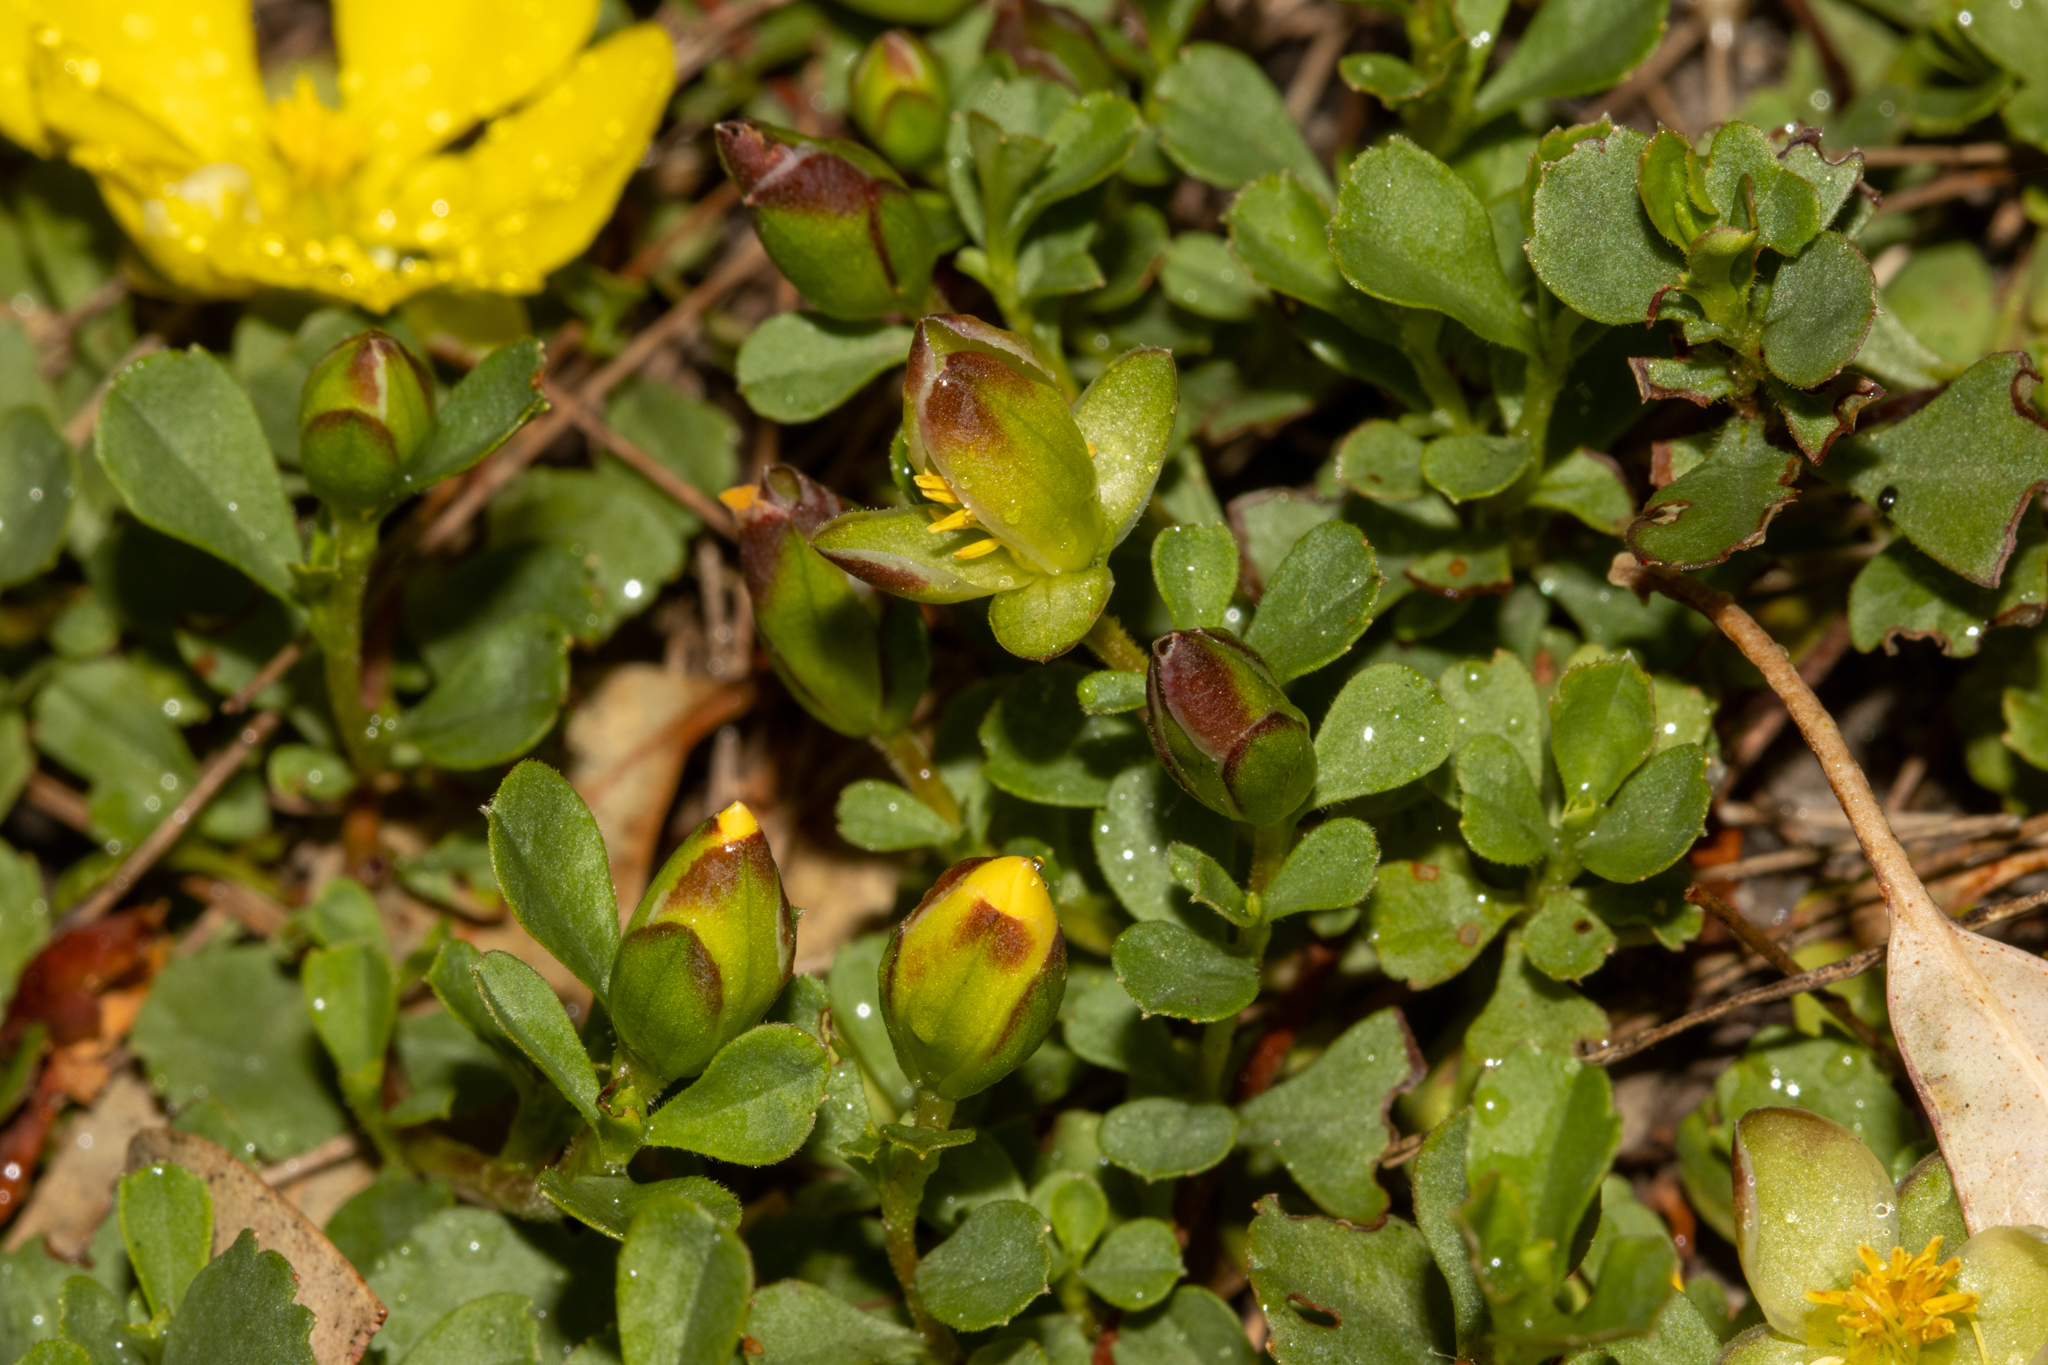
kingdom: Plantae
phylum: Tracheophyta
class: Magnoliopsida
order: Dilleniales
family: Dilleniaceae
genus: Hibbertia
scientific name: Hibbertia diffusa
